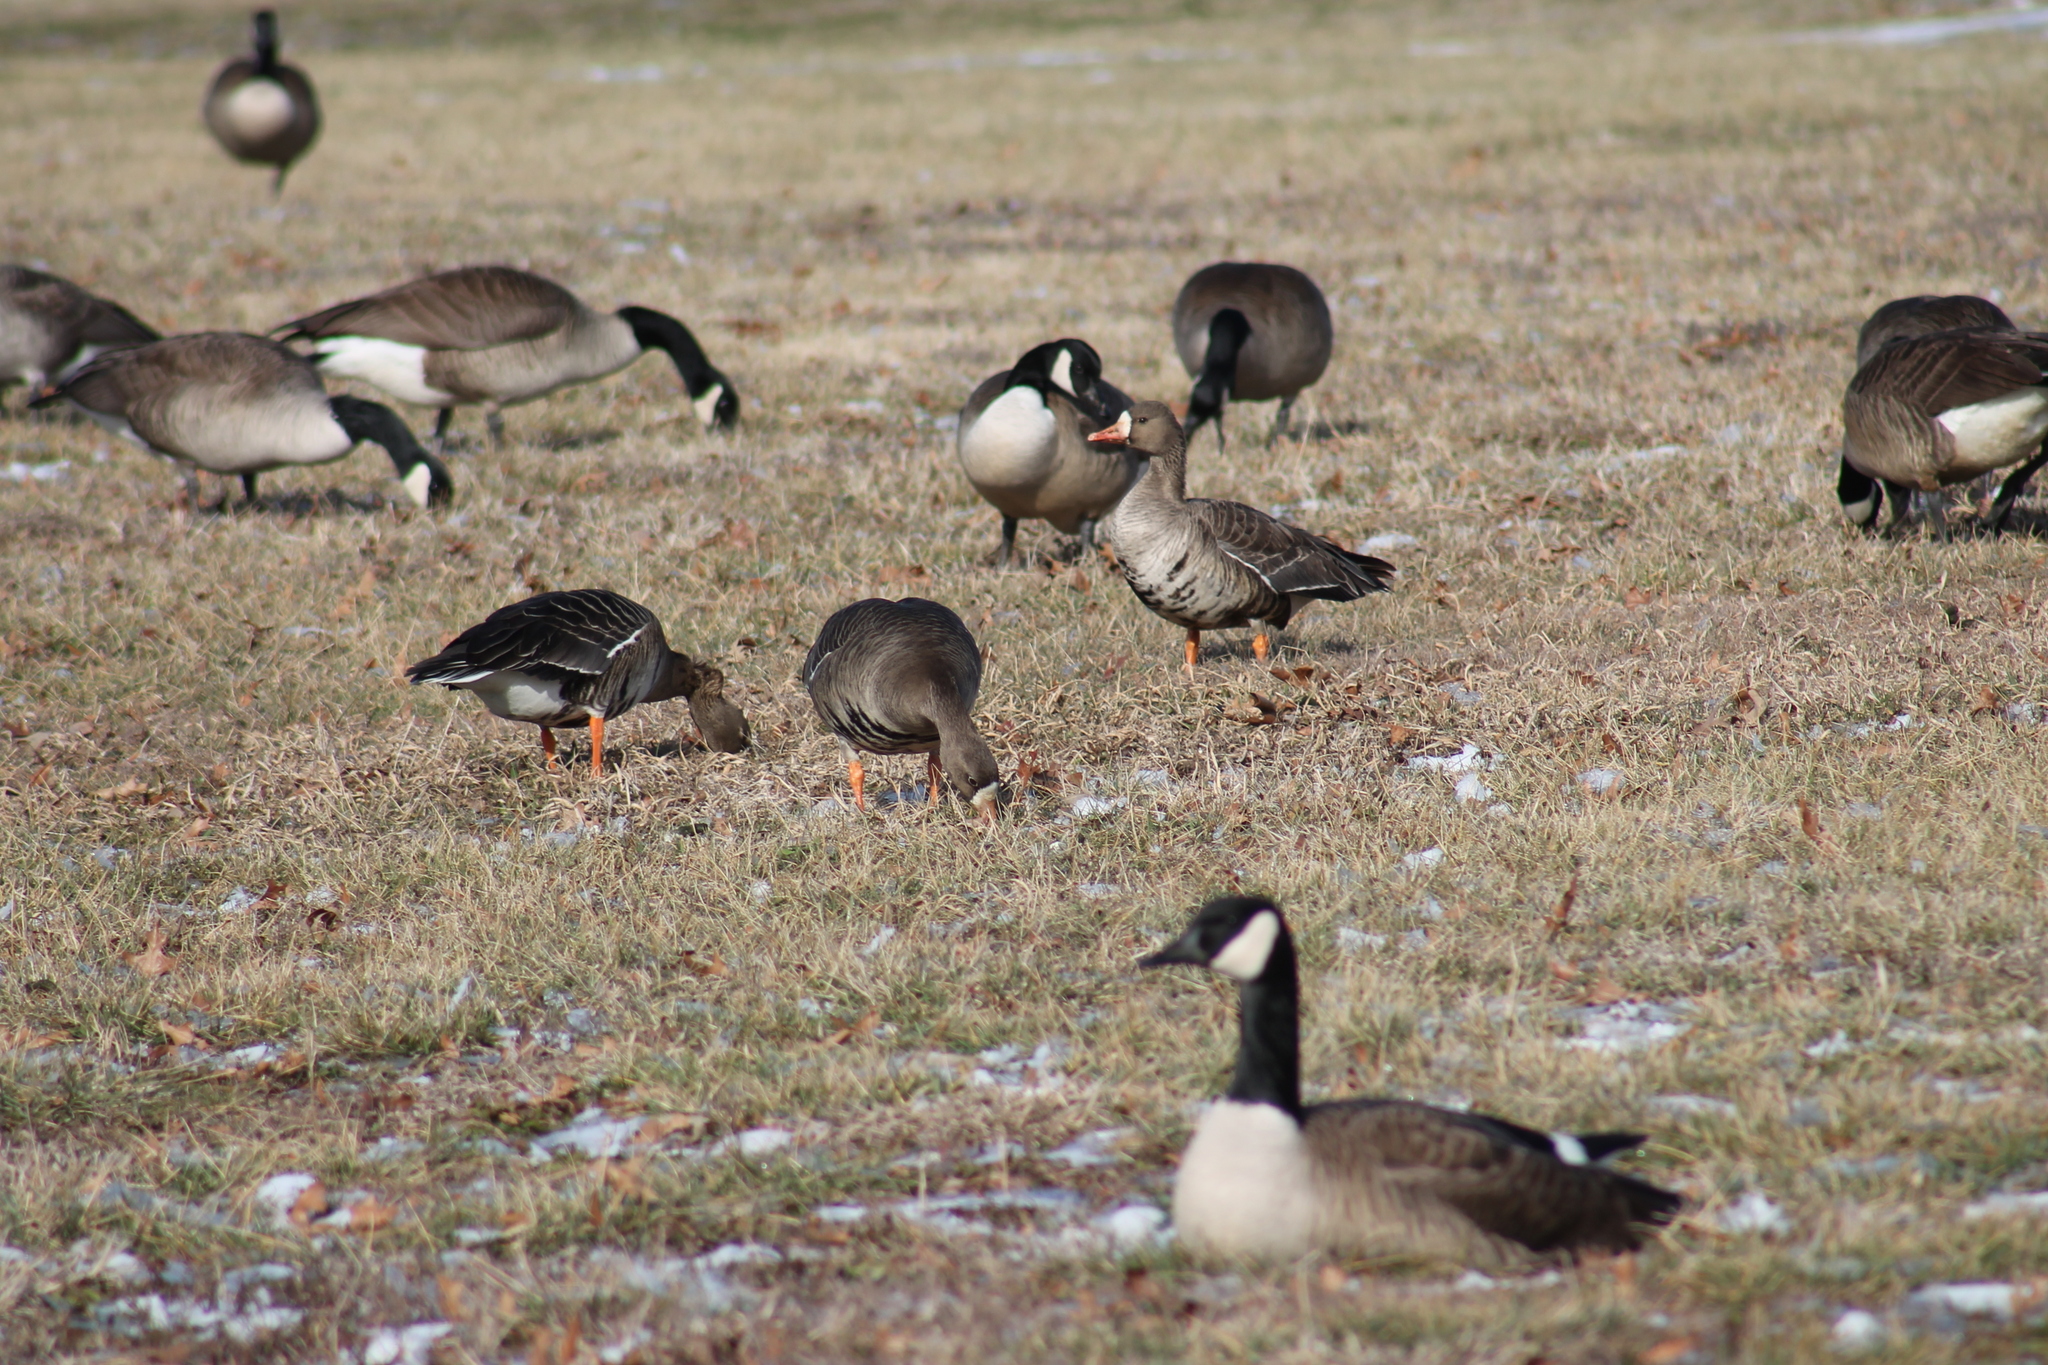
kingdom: Animalia
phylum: Chordata
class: Aves
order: Anseriformes
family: Anatidae
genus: Anser
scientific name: Anser albifrons
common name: Greater white-fronted goose
